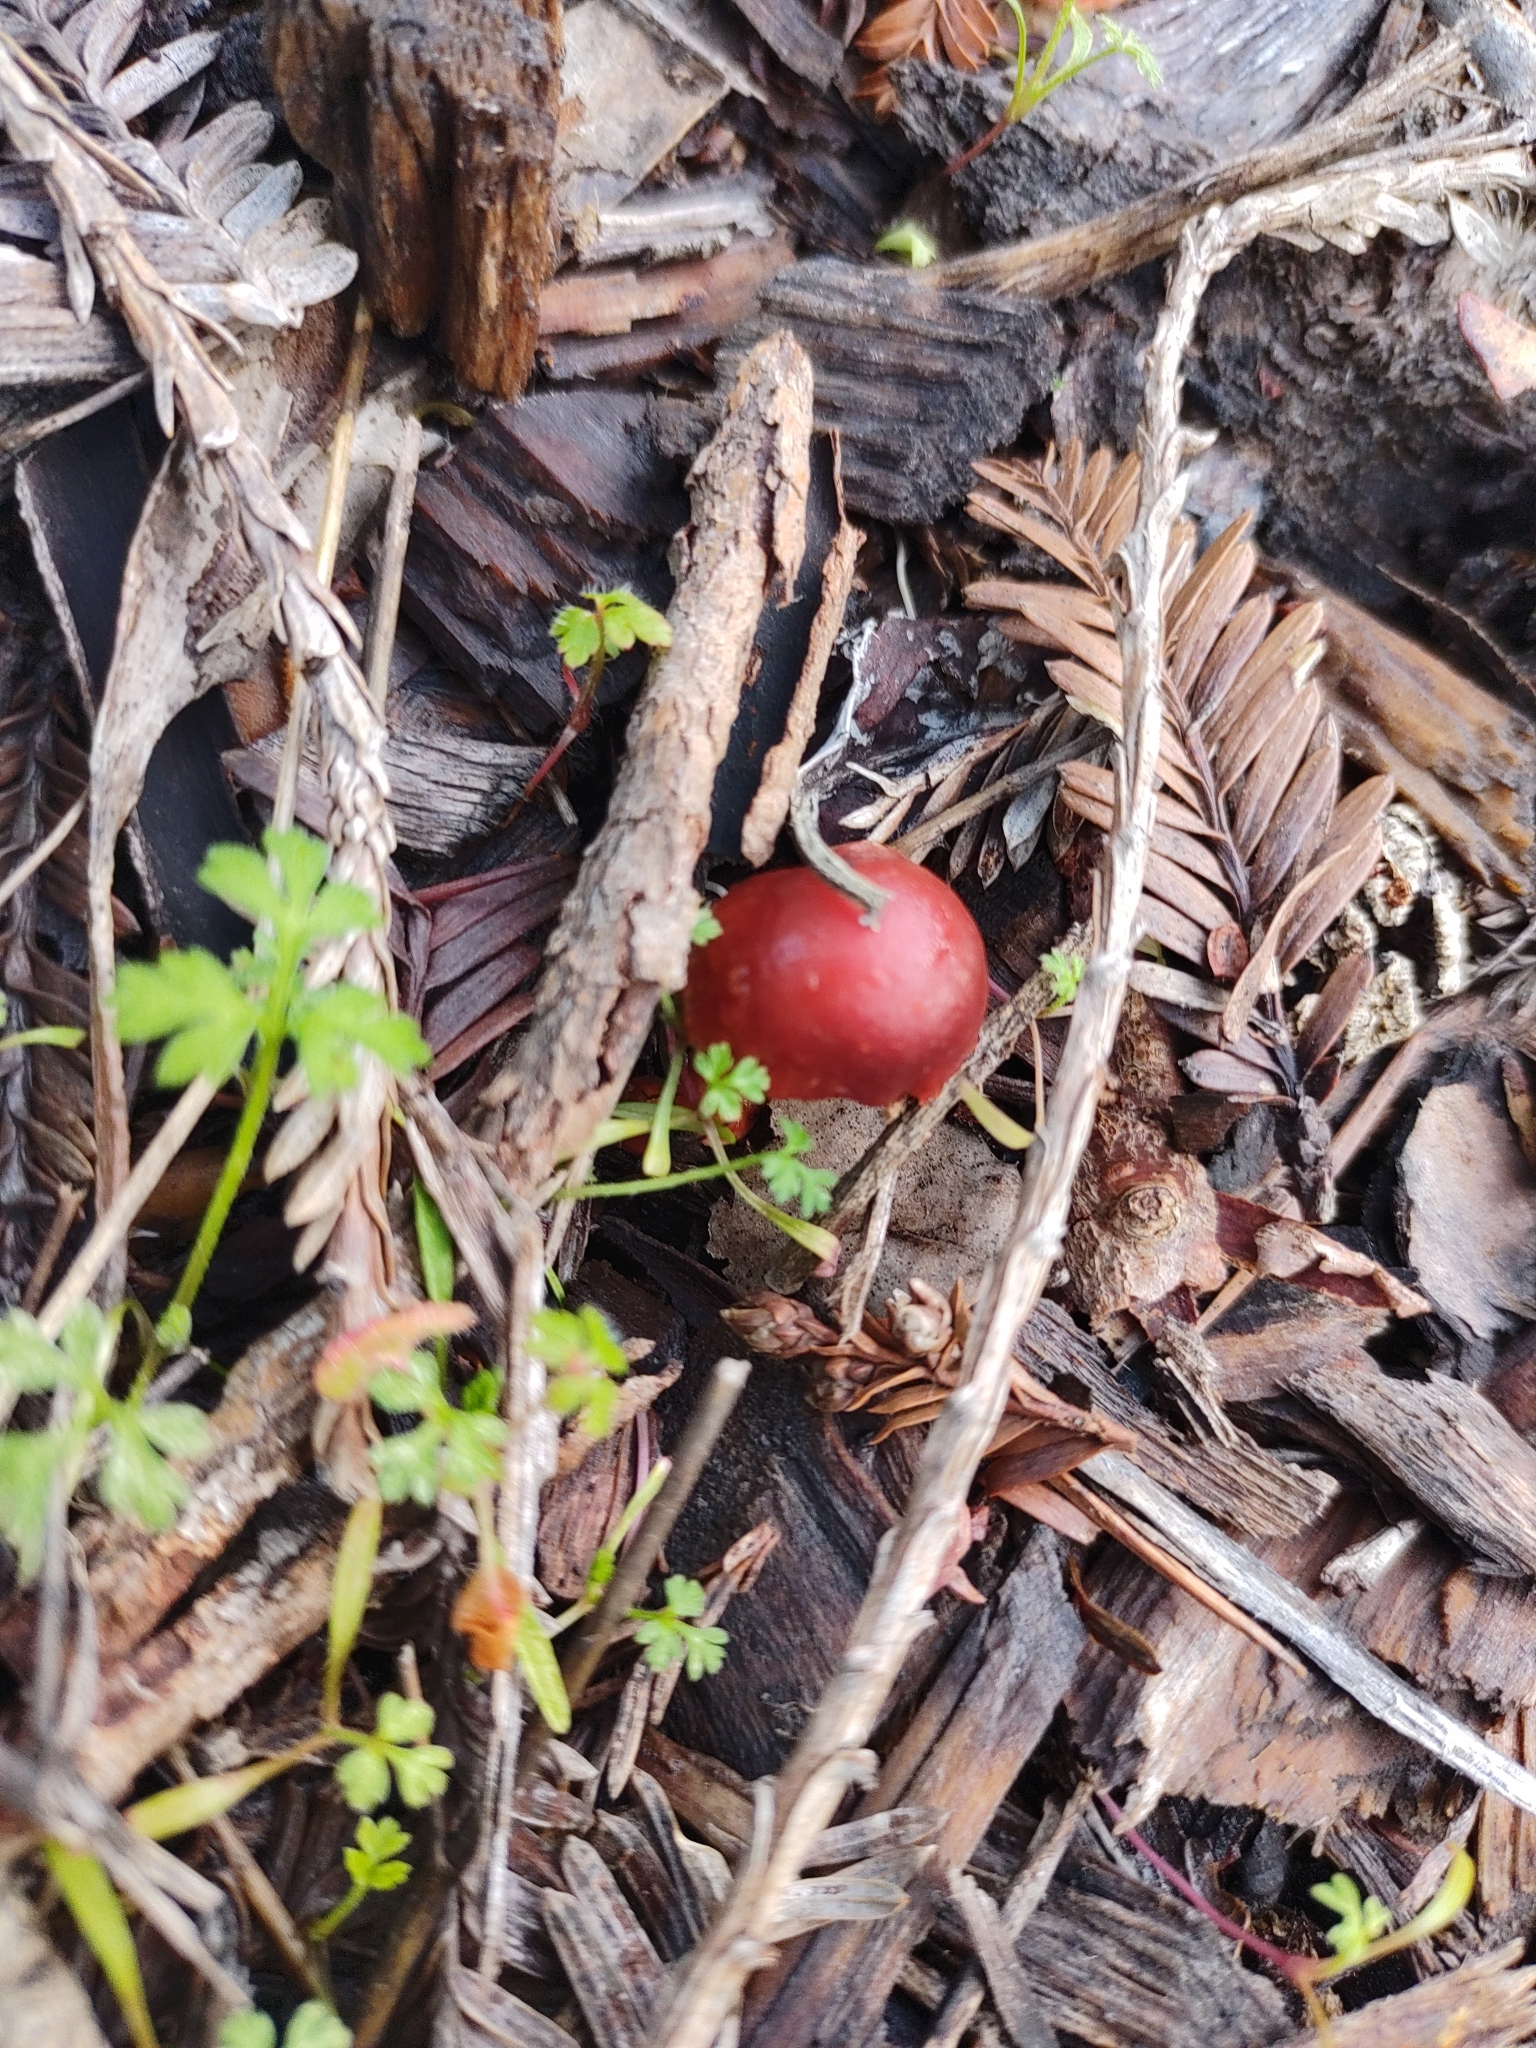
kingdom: Fungi
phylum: Basidiomycota
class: Agaricomycetes
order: Agaricales
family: Strophariaceae
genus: Leratiomyces
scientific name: Leratiomyces ceres
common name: Redlead roundhead
